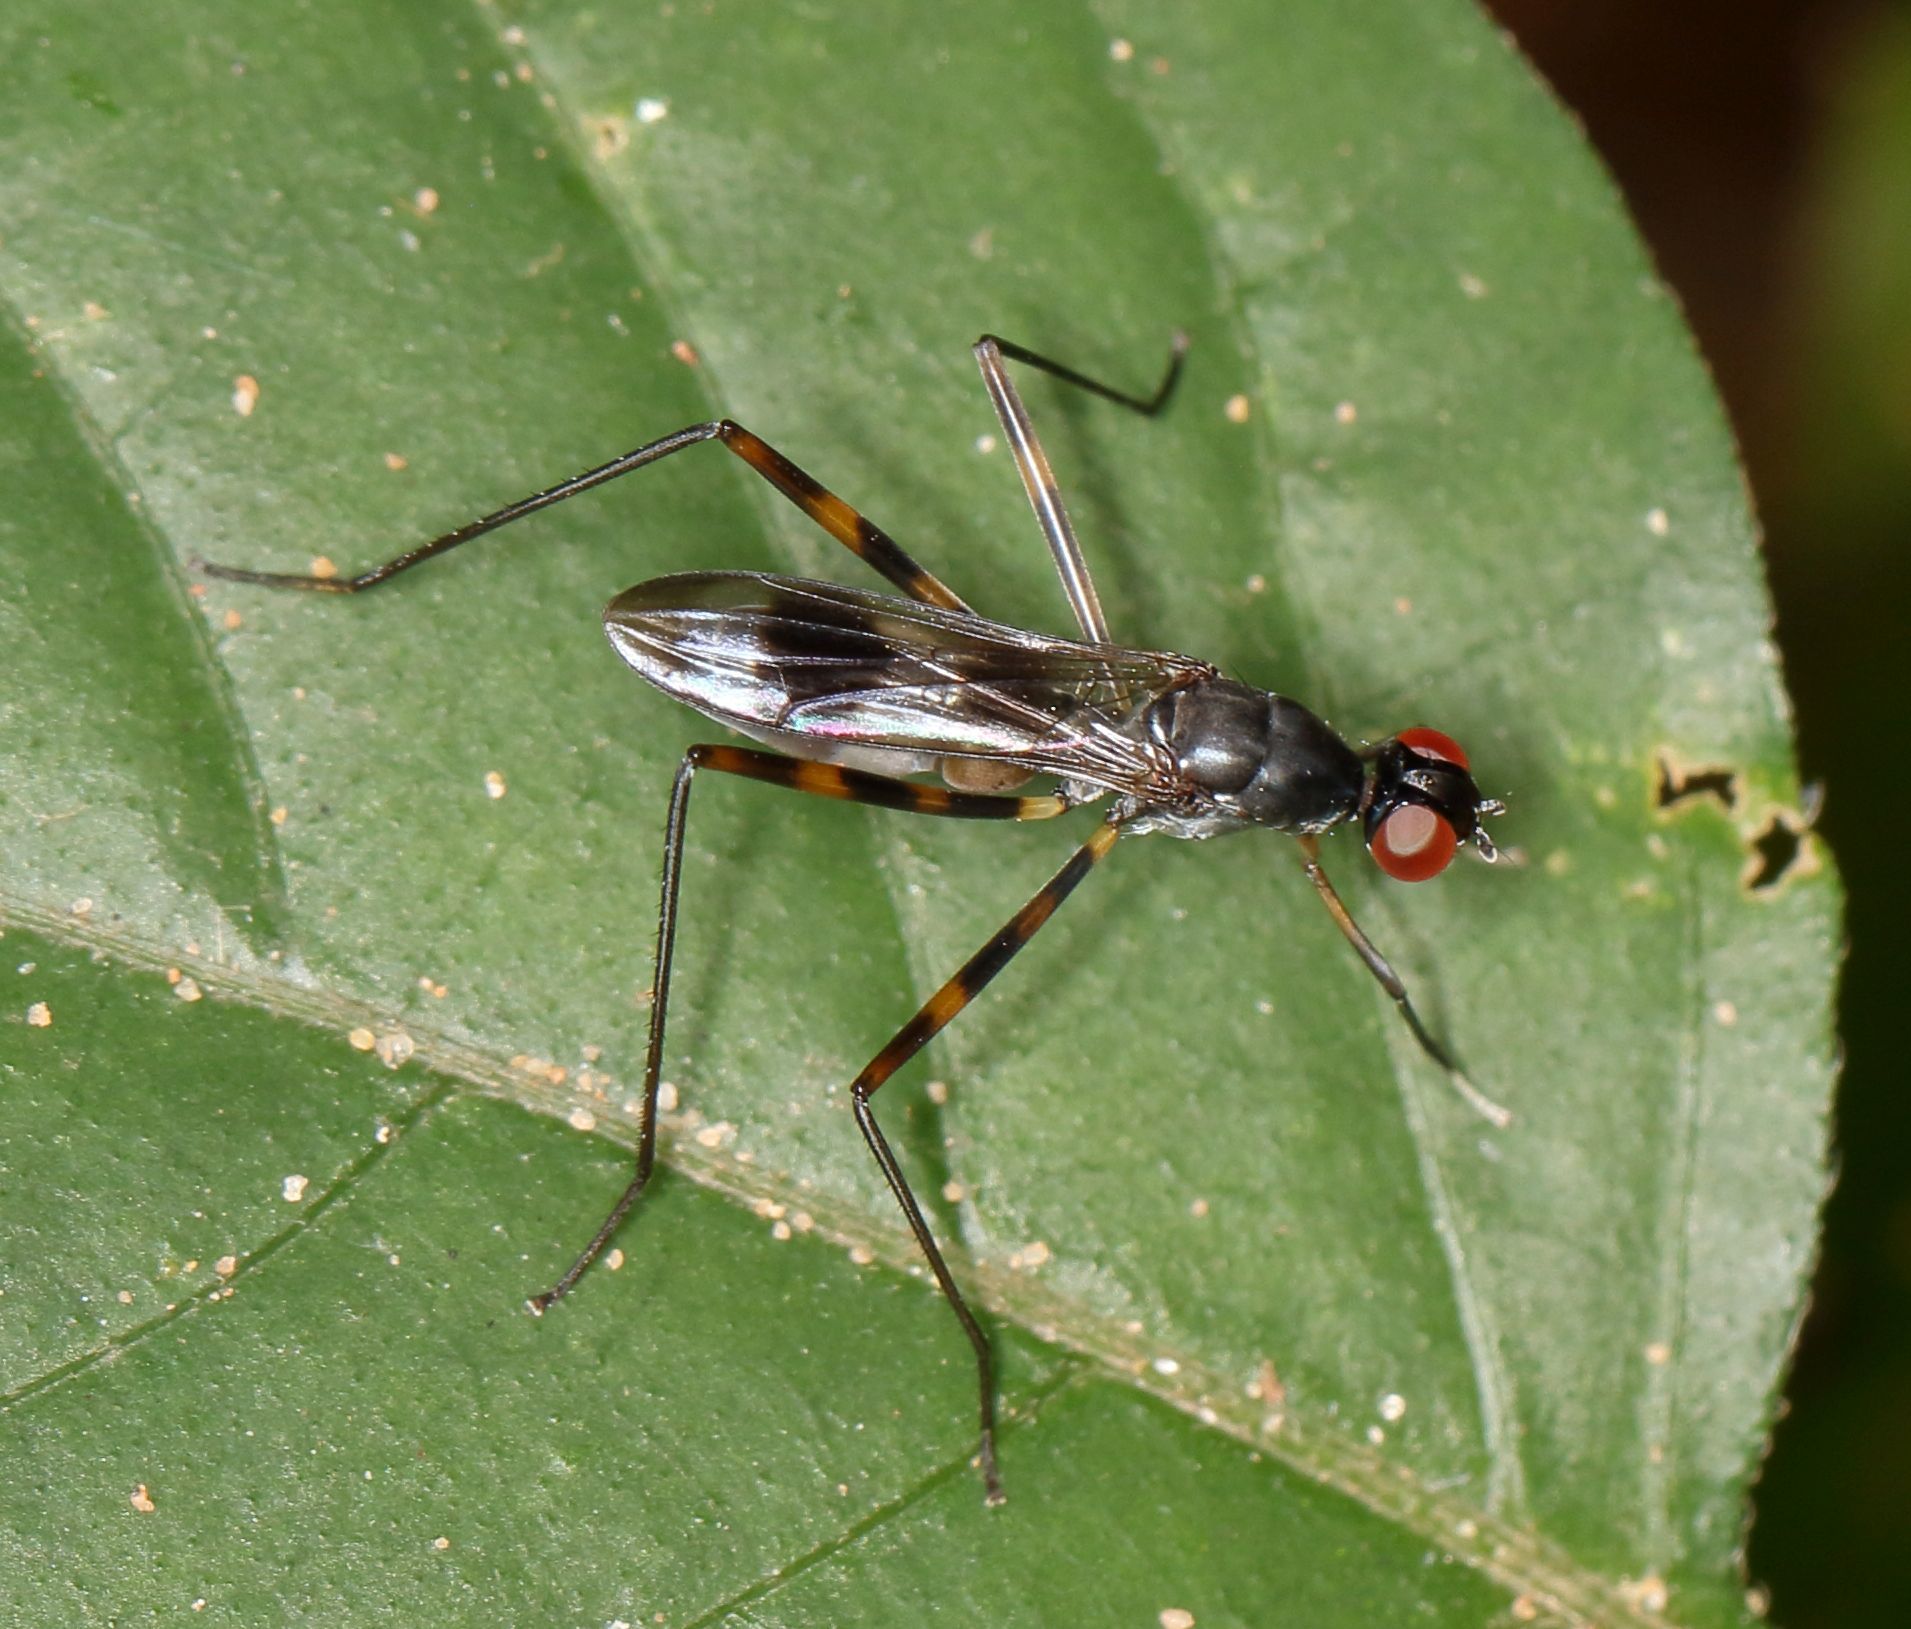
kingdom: Animalia
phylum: Arthropoda
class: Insecta
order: Diptera
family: Micropezidae
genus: Hybobata
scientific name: Hybobata
